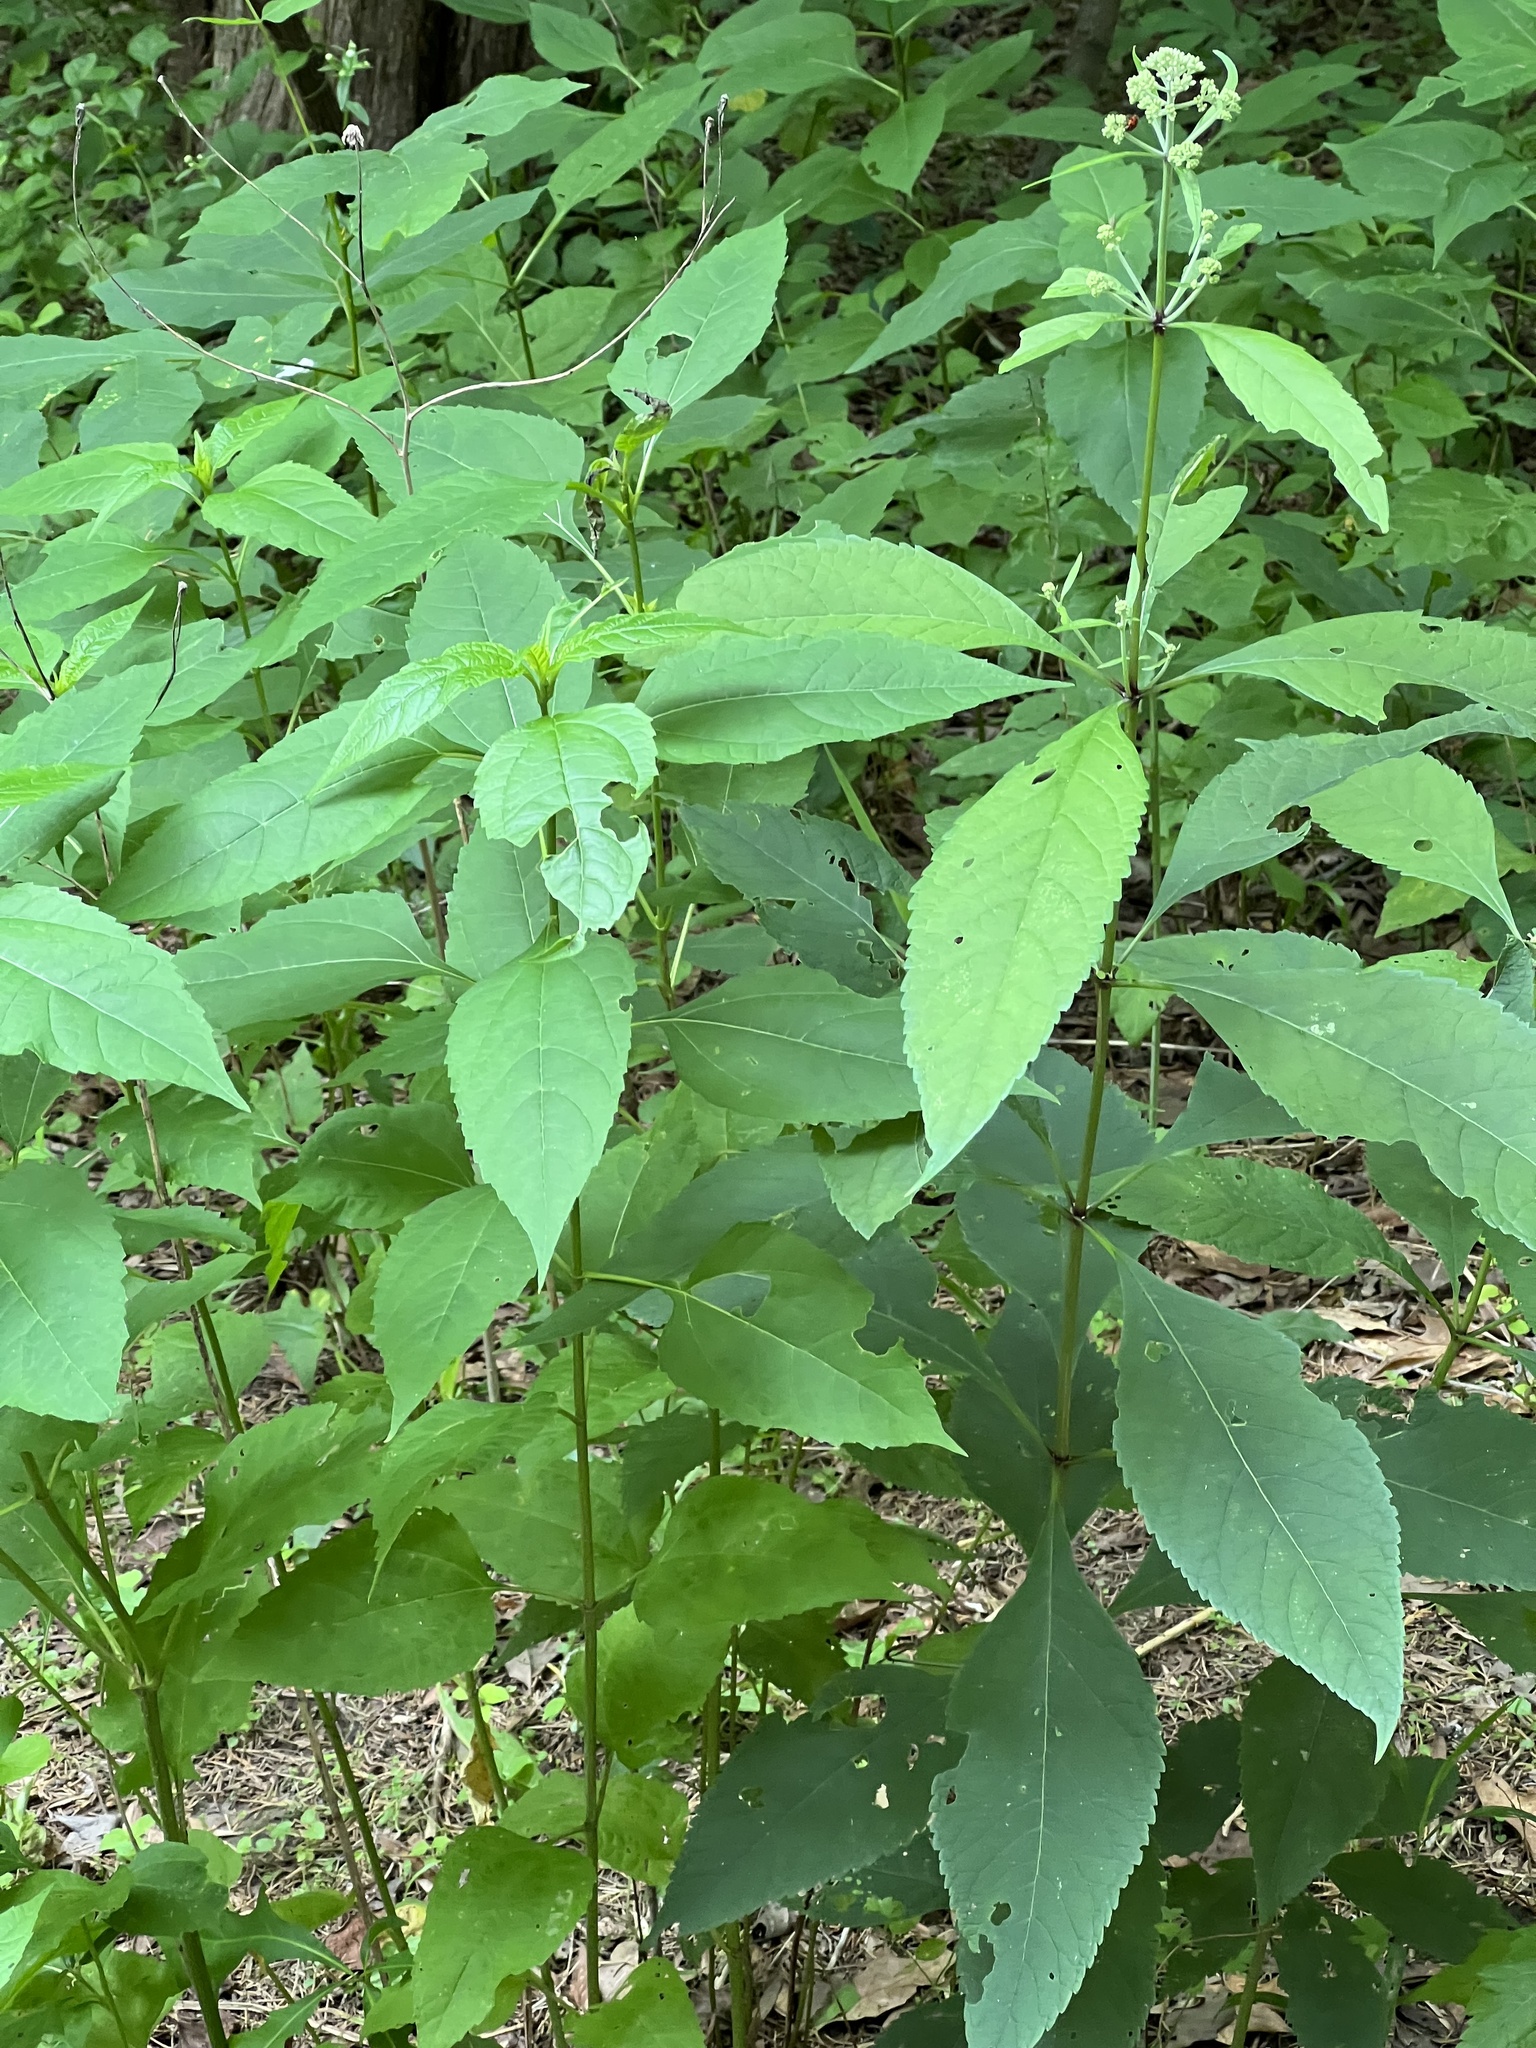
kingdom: Plantae
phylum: Tracheophyta
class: Magnoliopsida
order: Asterales
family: Asteraceae
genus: Eutrochium
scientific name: Eutrochium purpureum
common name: Gravelroot
